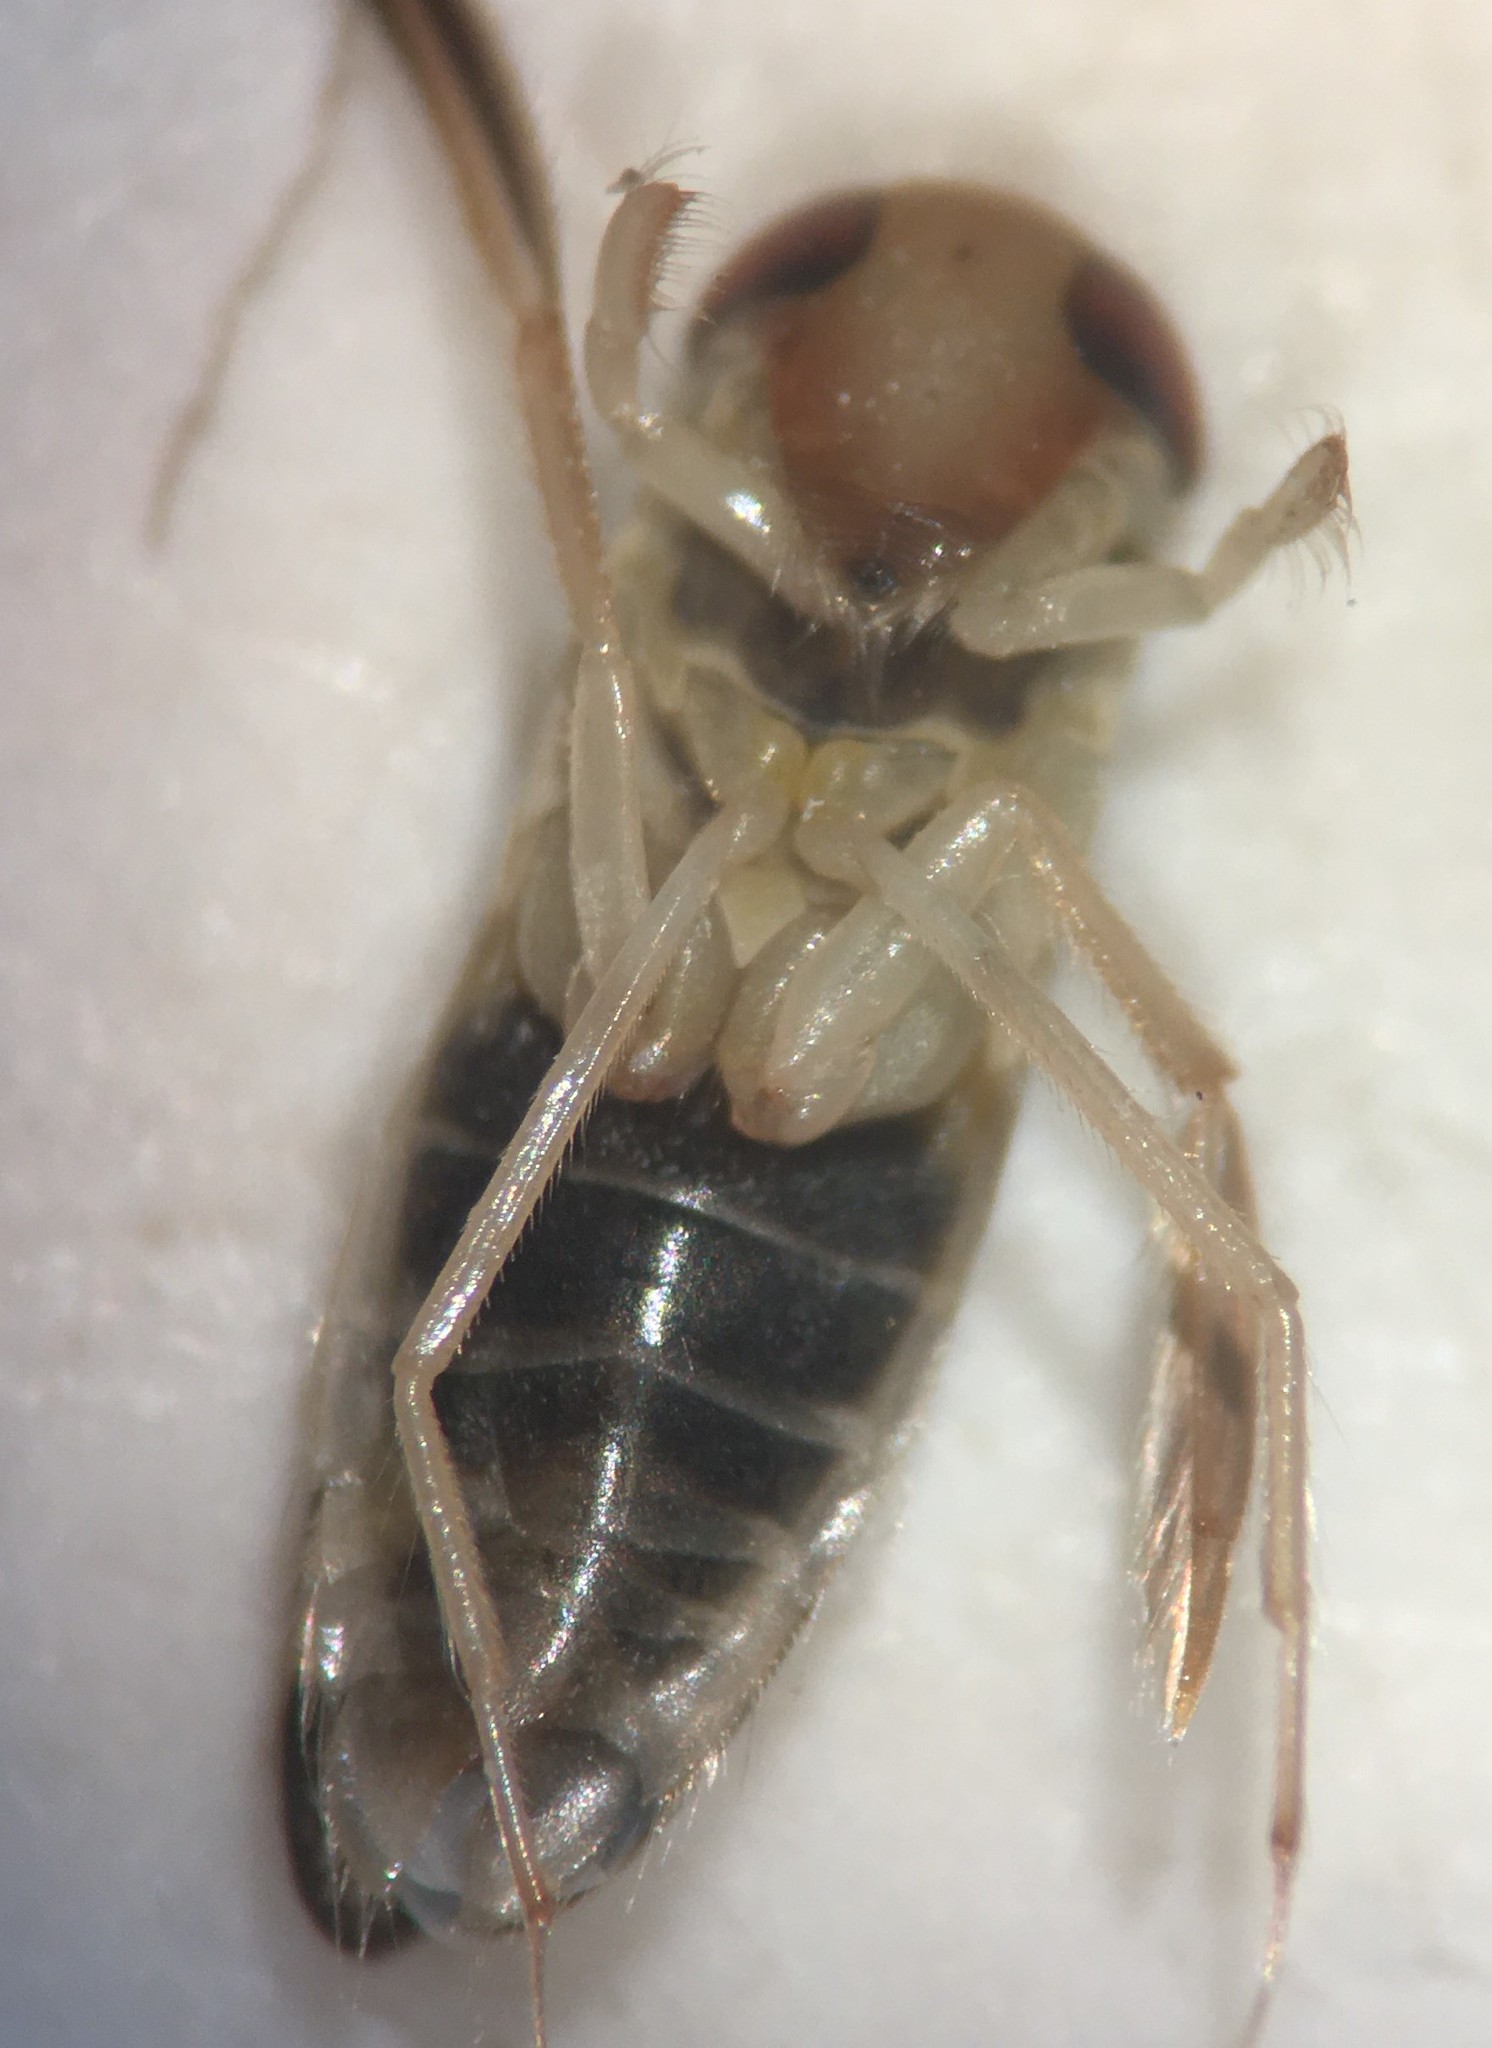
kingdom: Animalia
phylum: Arthropoda
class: Insecta
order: Hemiptera
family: Corixidae
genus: Sigara
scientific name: Sigara alternata
